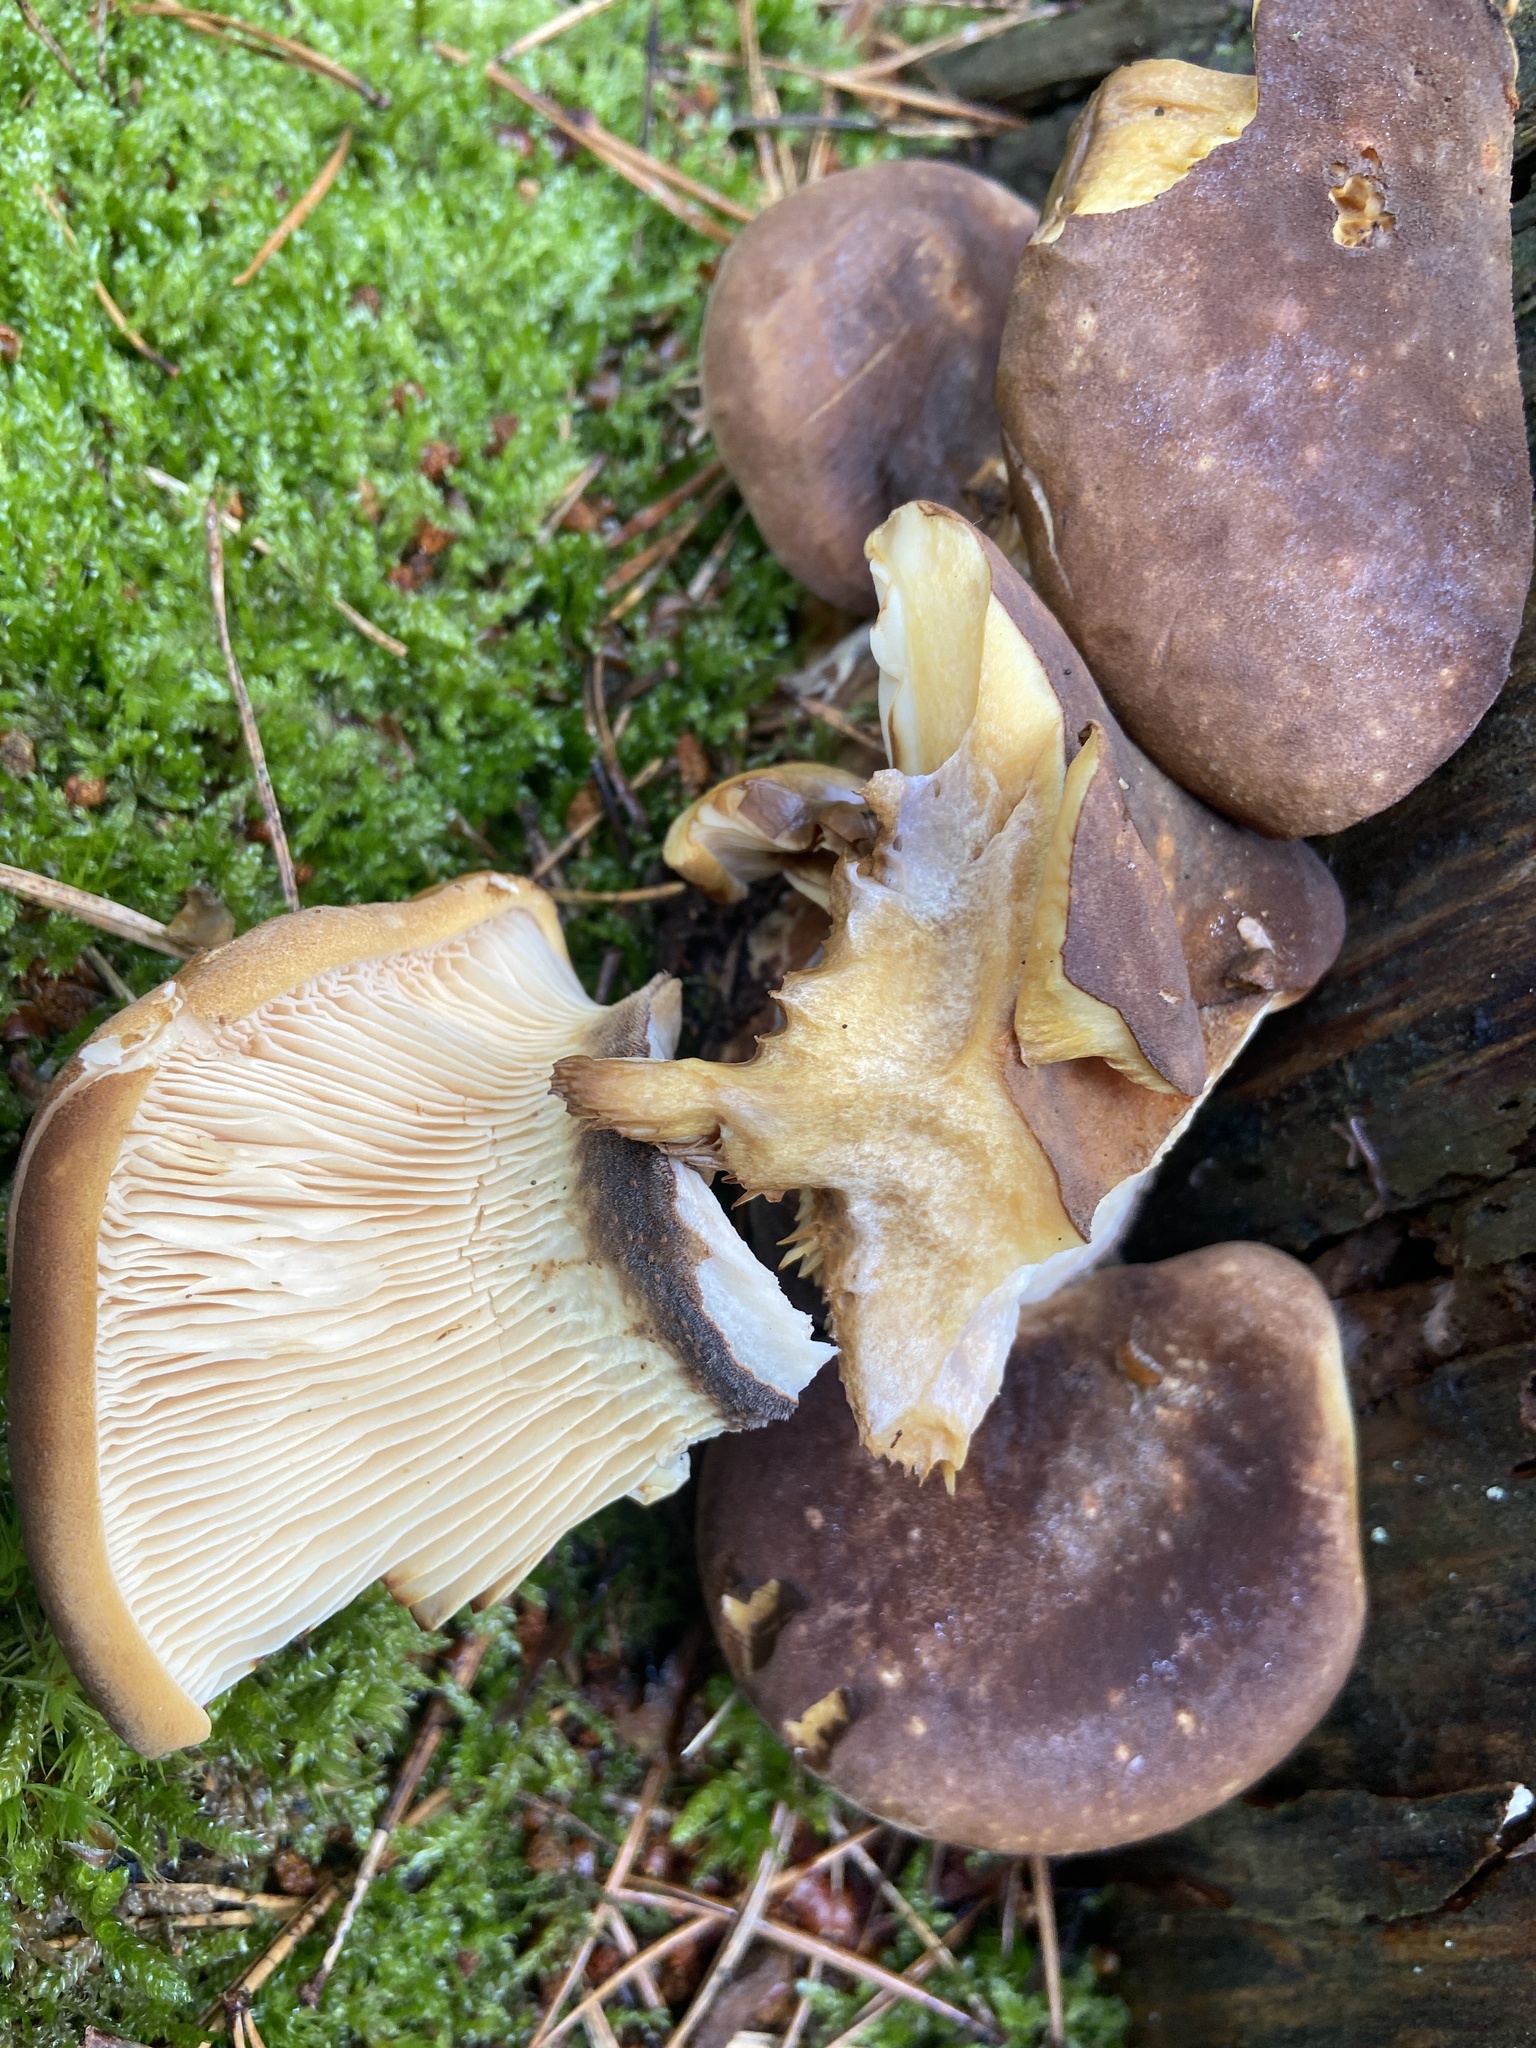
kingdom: Fungi
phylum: Basidiomycota
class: Agaricomycetes
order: Boletales
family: Tapinellaceae
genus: Tapinella
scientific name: Tapinella atrotomentosa
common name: Velvet rollrim
